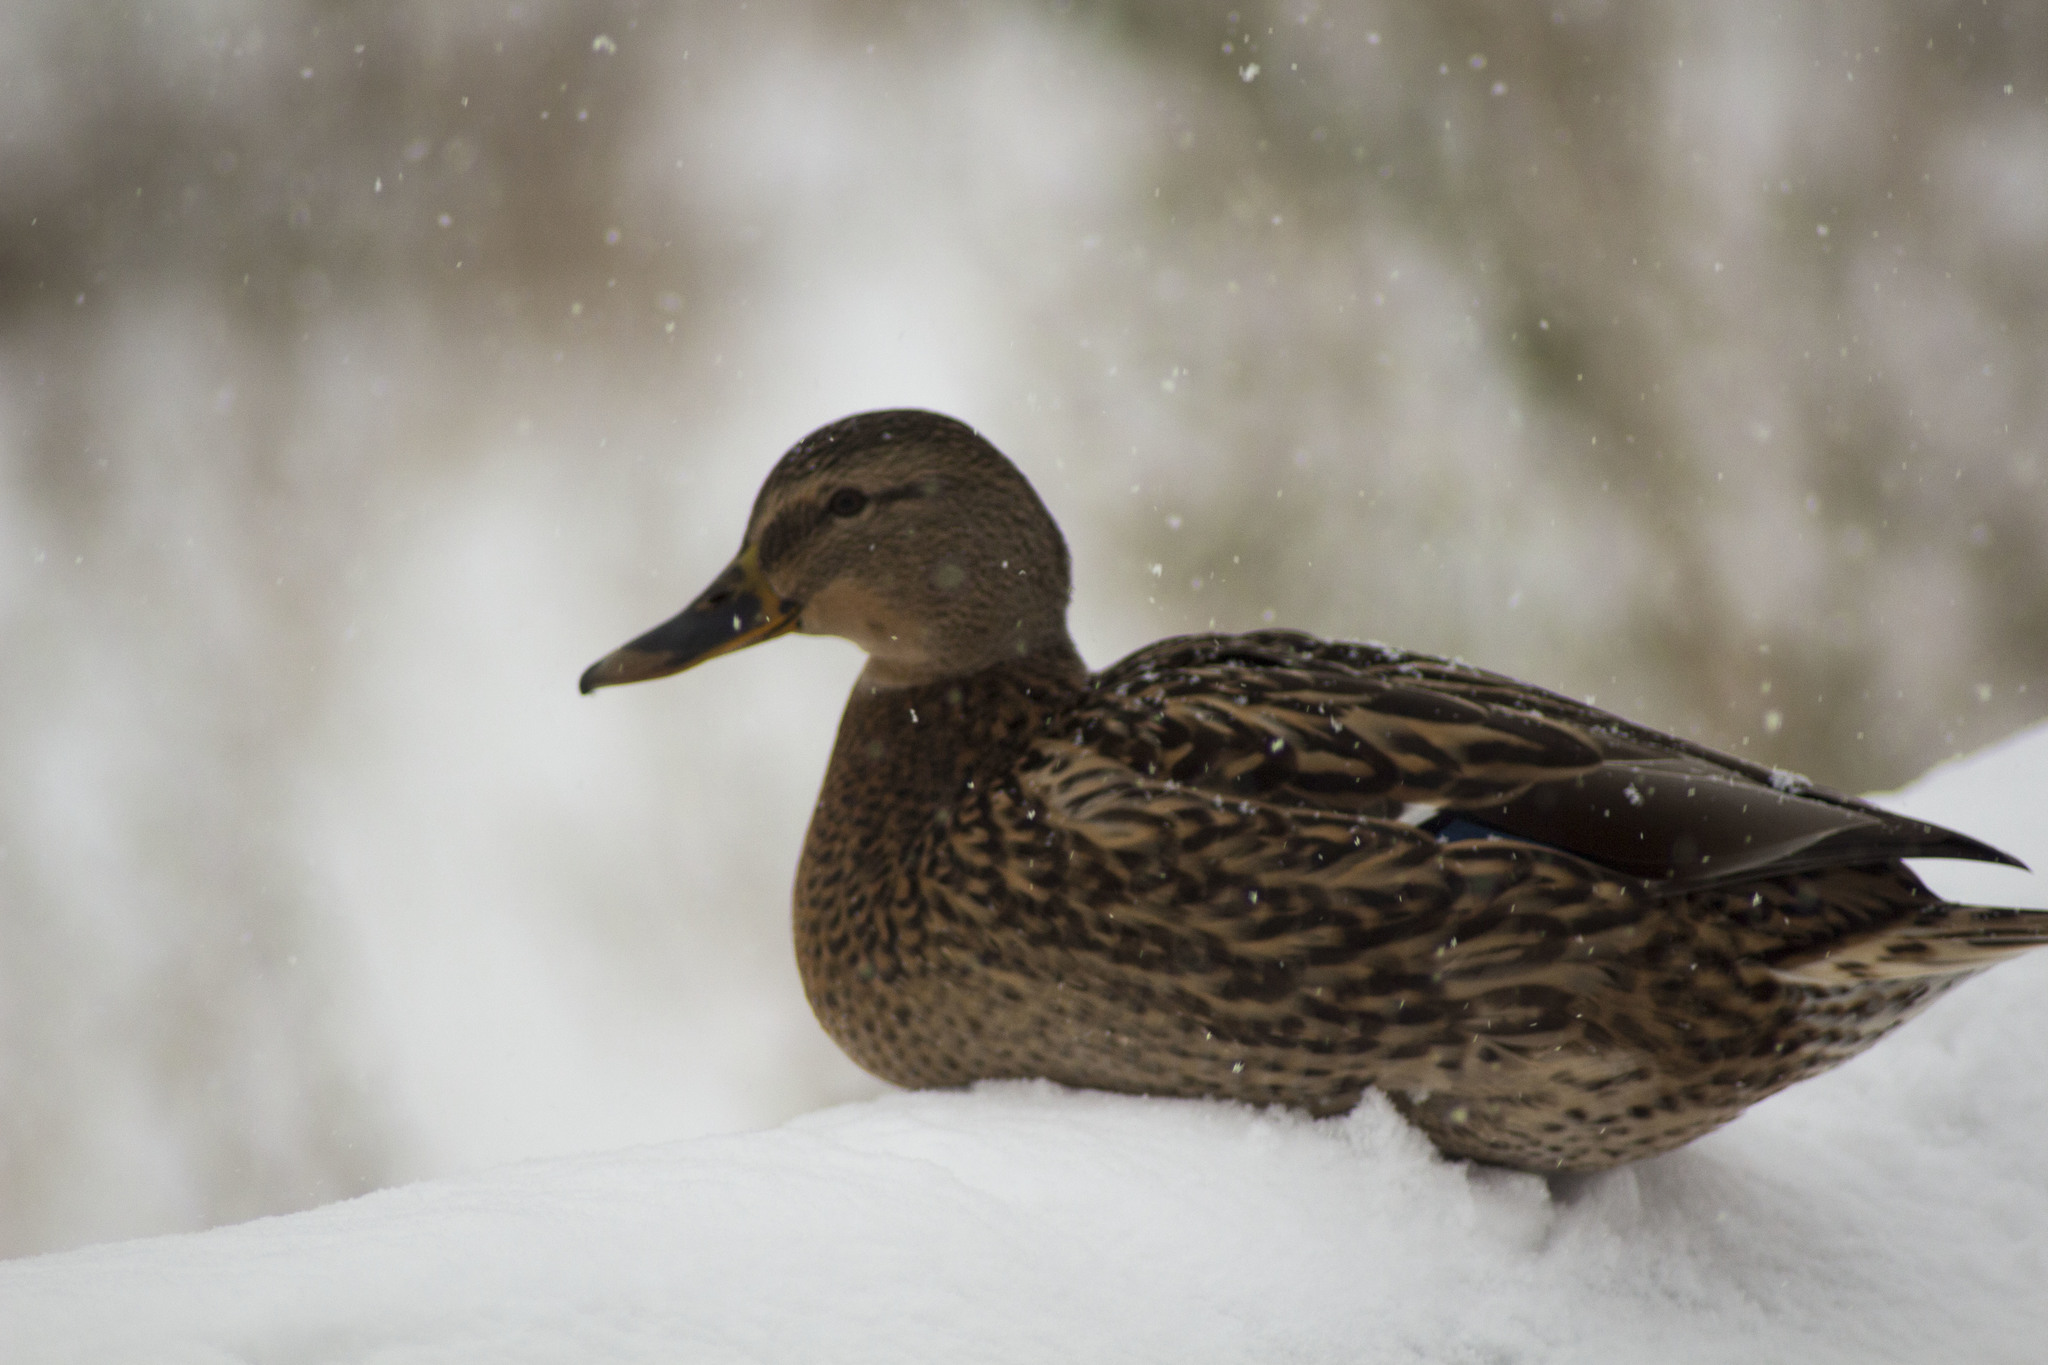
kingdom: Animalia
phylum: Chordata
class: Aves
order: Anseriformes
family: Anatidae
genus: Anas
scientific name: Anas platyrhynchos
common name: Mallard
